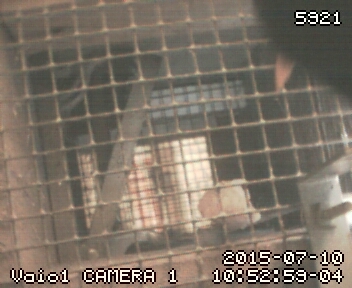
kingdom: Animalia
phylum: Chordata
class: Aves
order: Passeriformes
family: Turdidae
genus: Turdus
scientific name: Turdus merula
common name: Common blackbird
